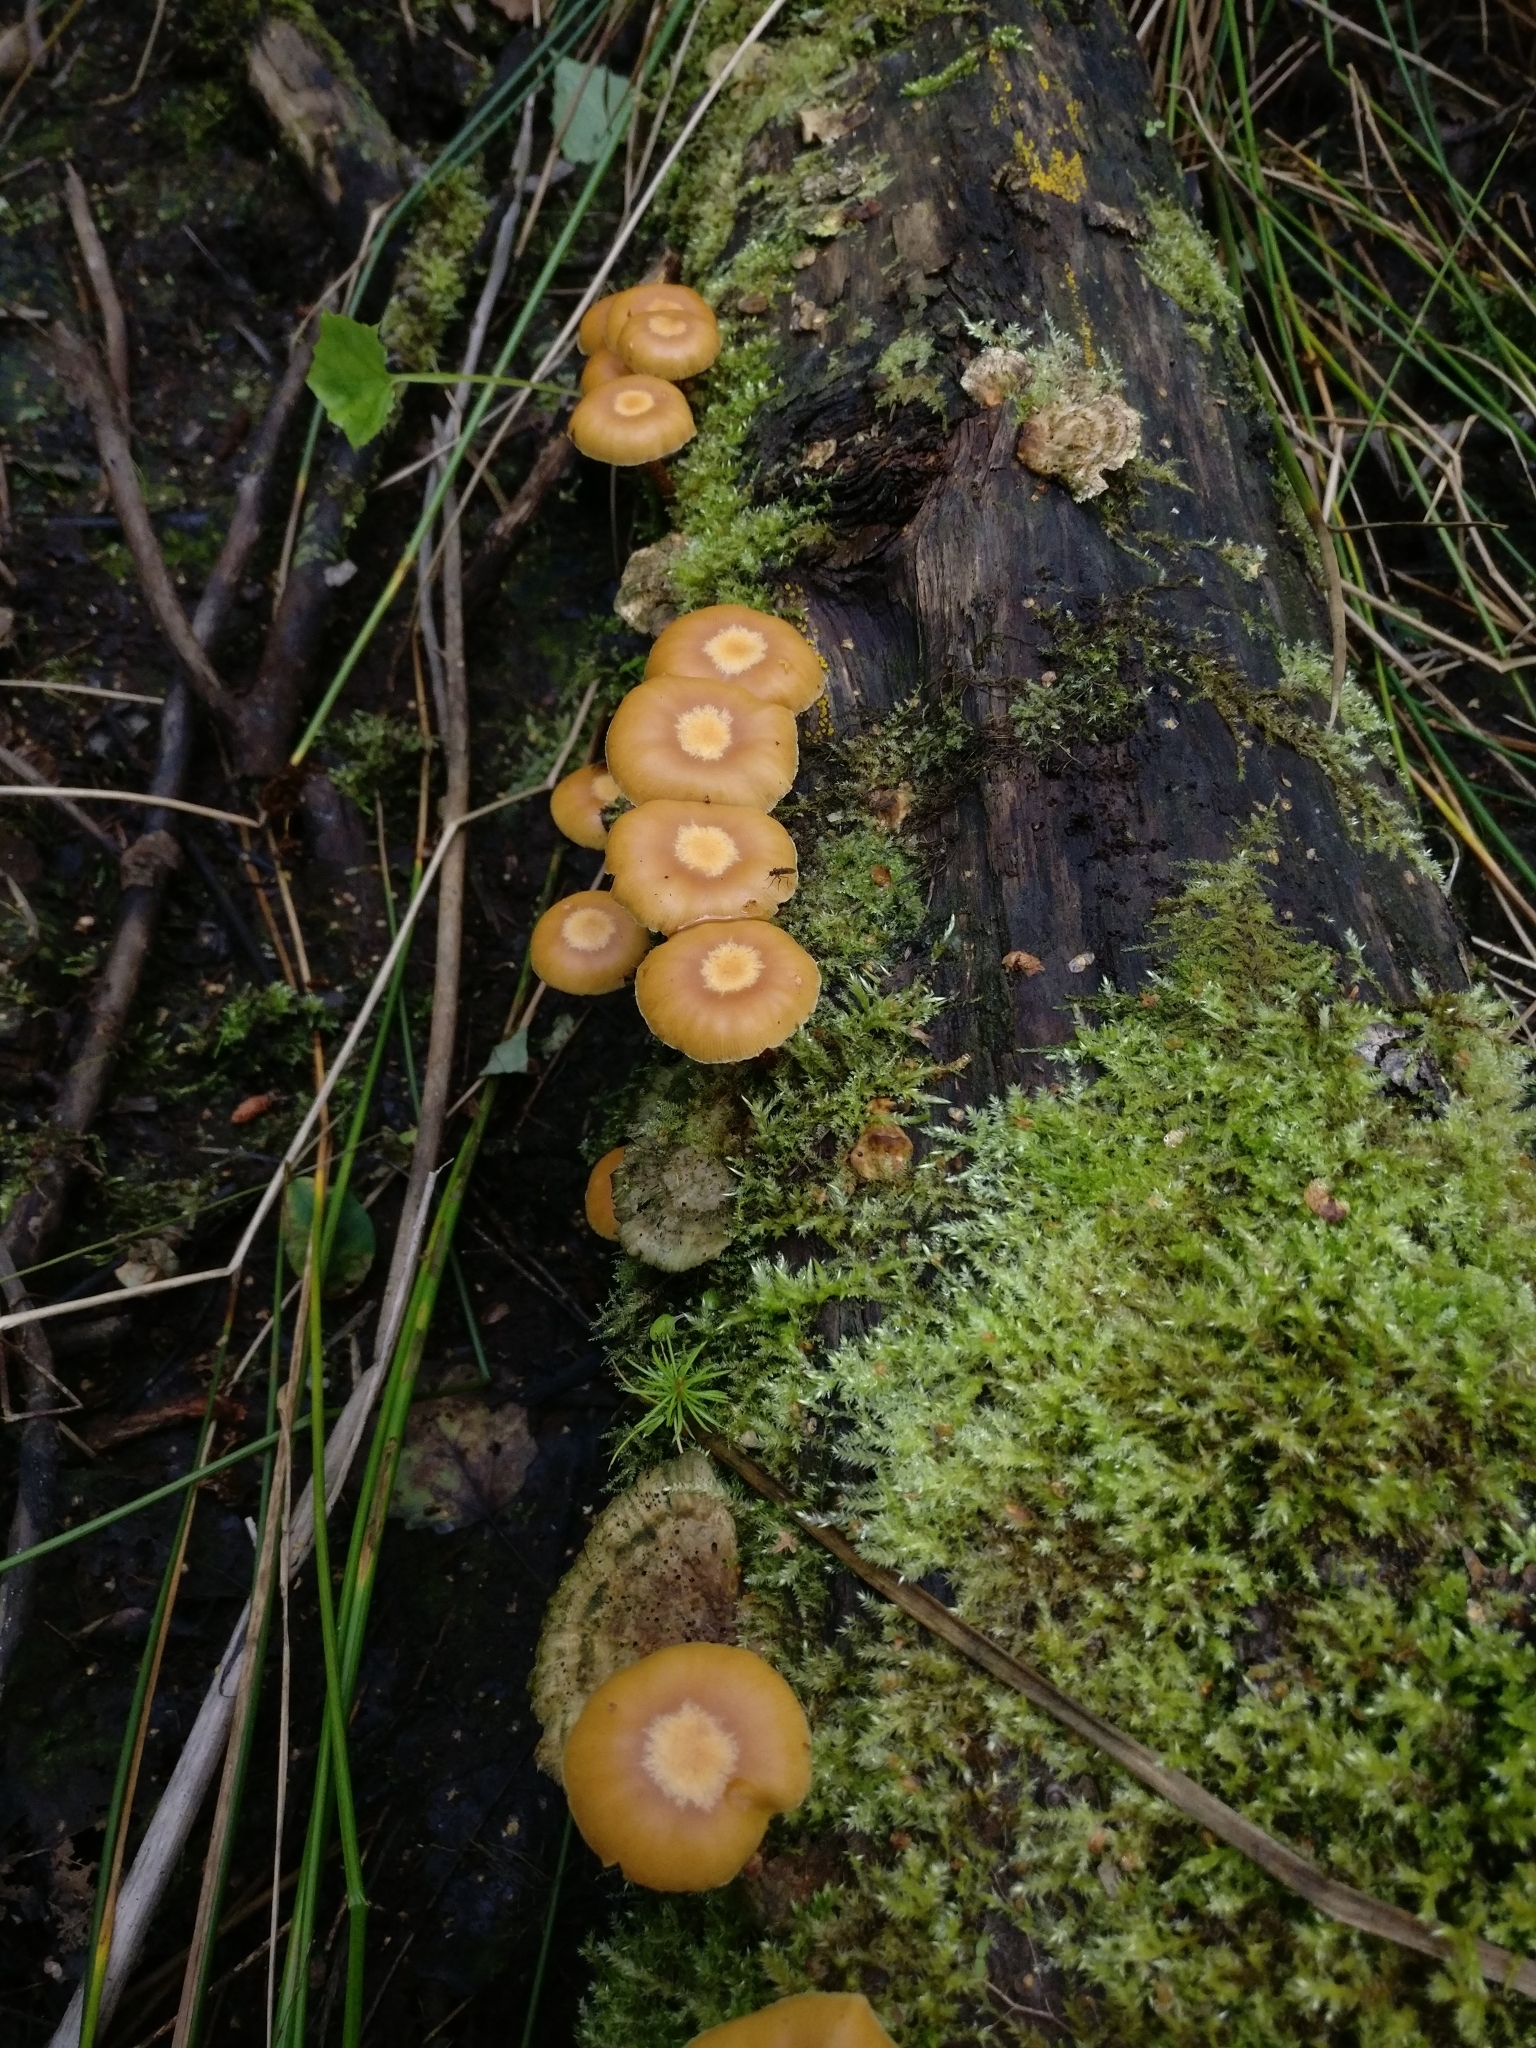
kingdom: Fungi
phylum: Basidiomycota
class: Agaricomycetes
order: Agaricales
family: Strophariaceae
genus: Kuehneromyces
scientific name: Kuehneromyces mutabilis
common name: Sheathed woodtuft
